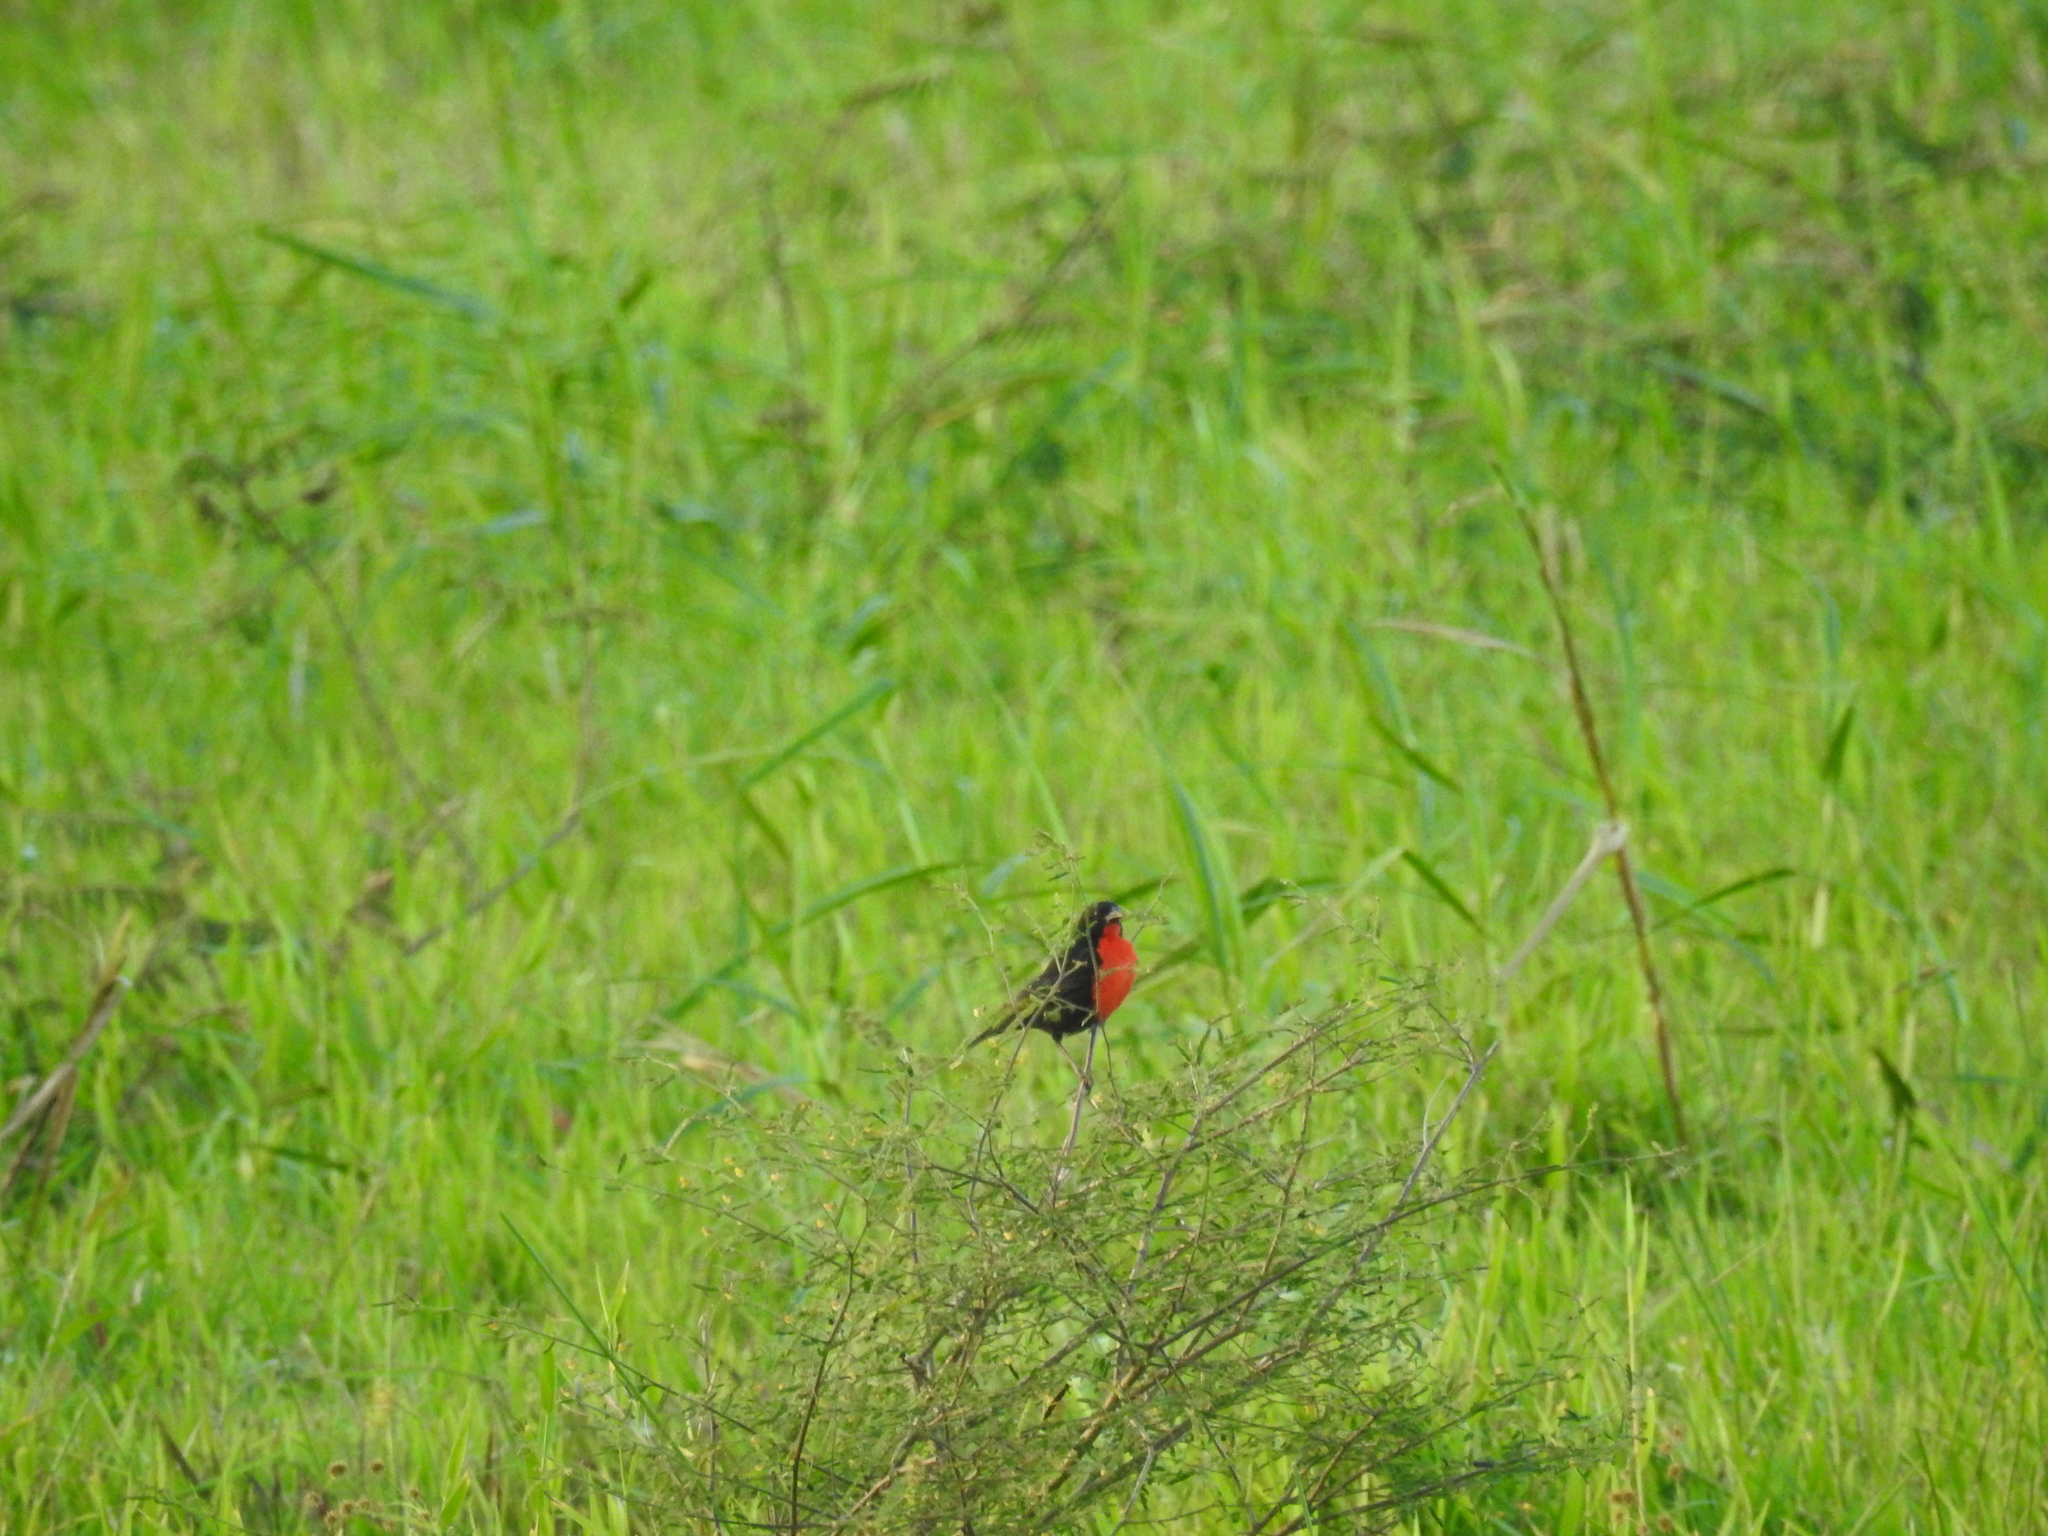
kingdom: Animalia
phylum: Chordata
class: Aves
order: Passeriformes
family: Icteridae
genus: Sturnella
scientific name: Sturnella militaris
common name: Red-breasted blackbird
